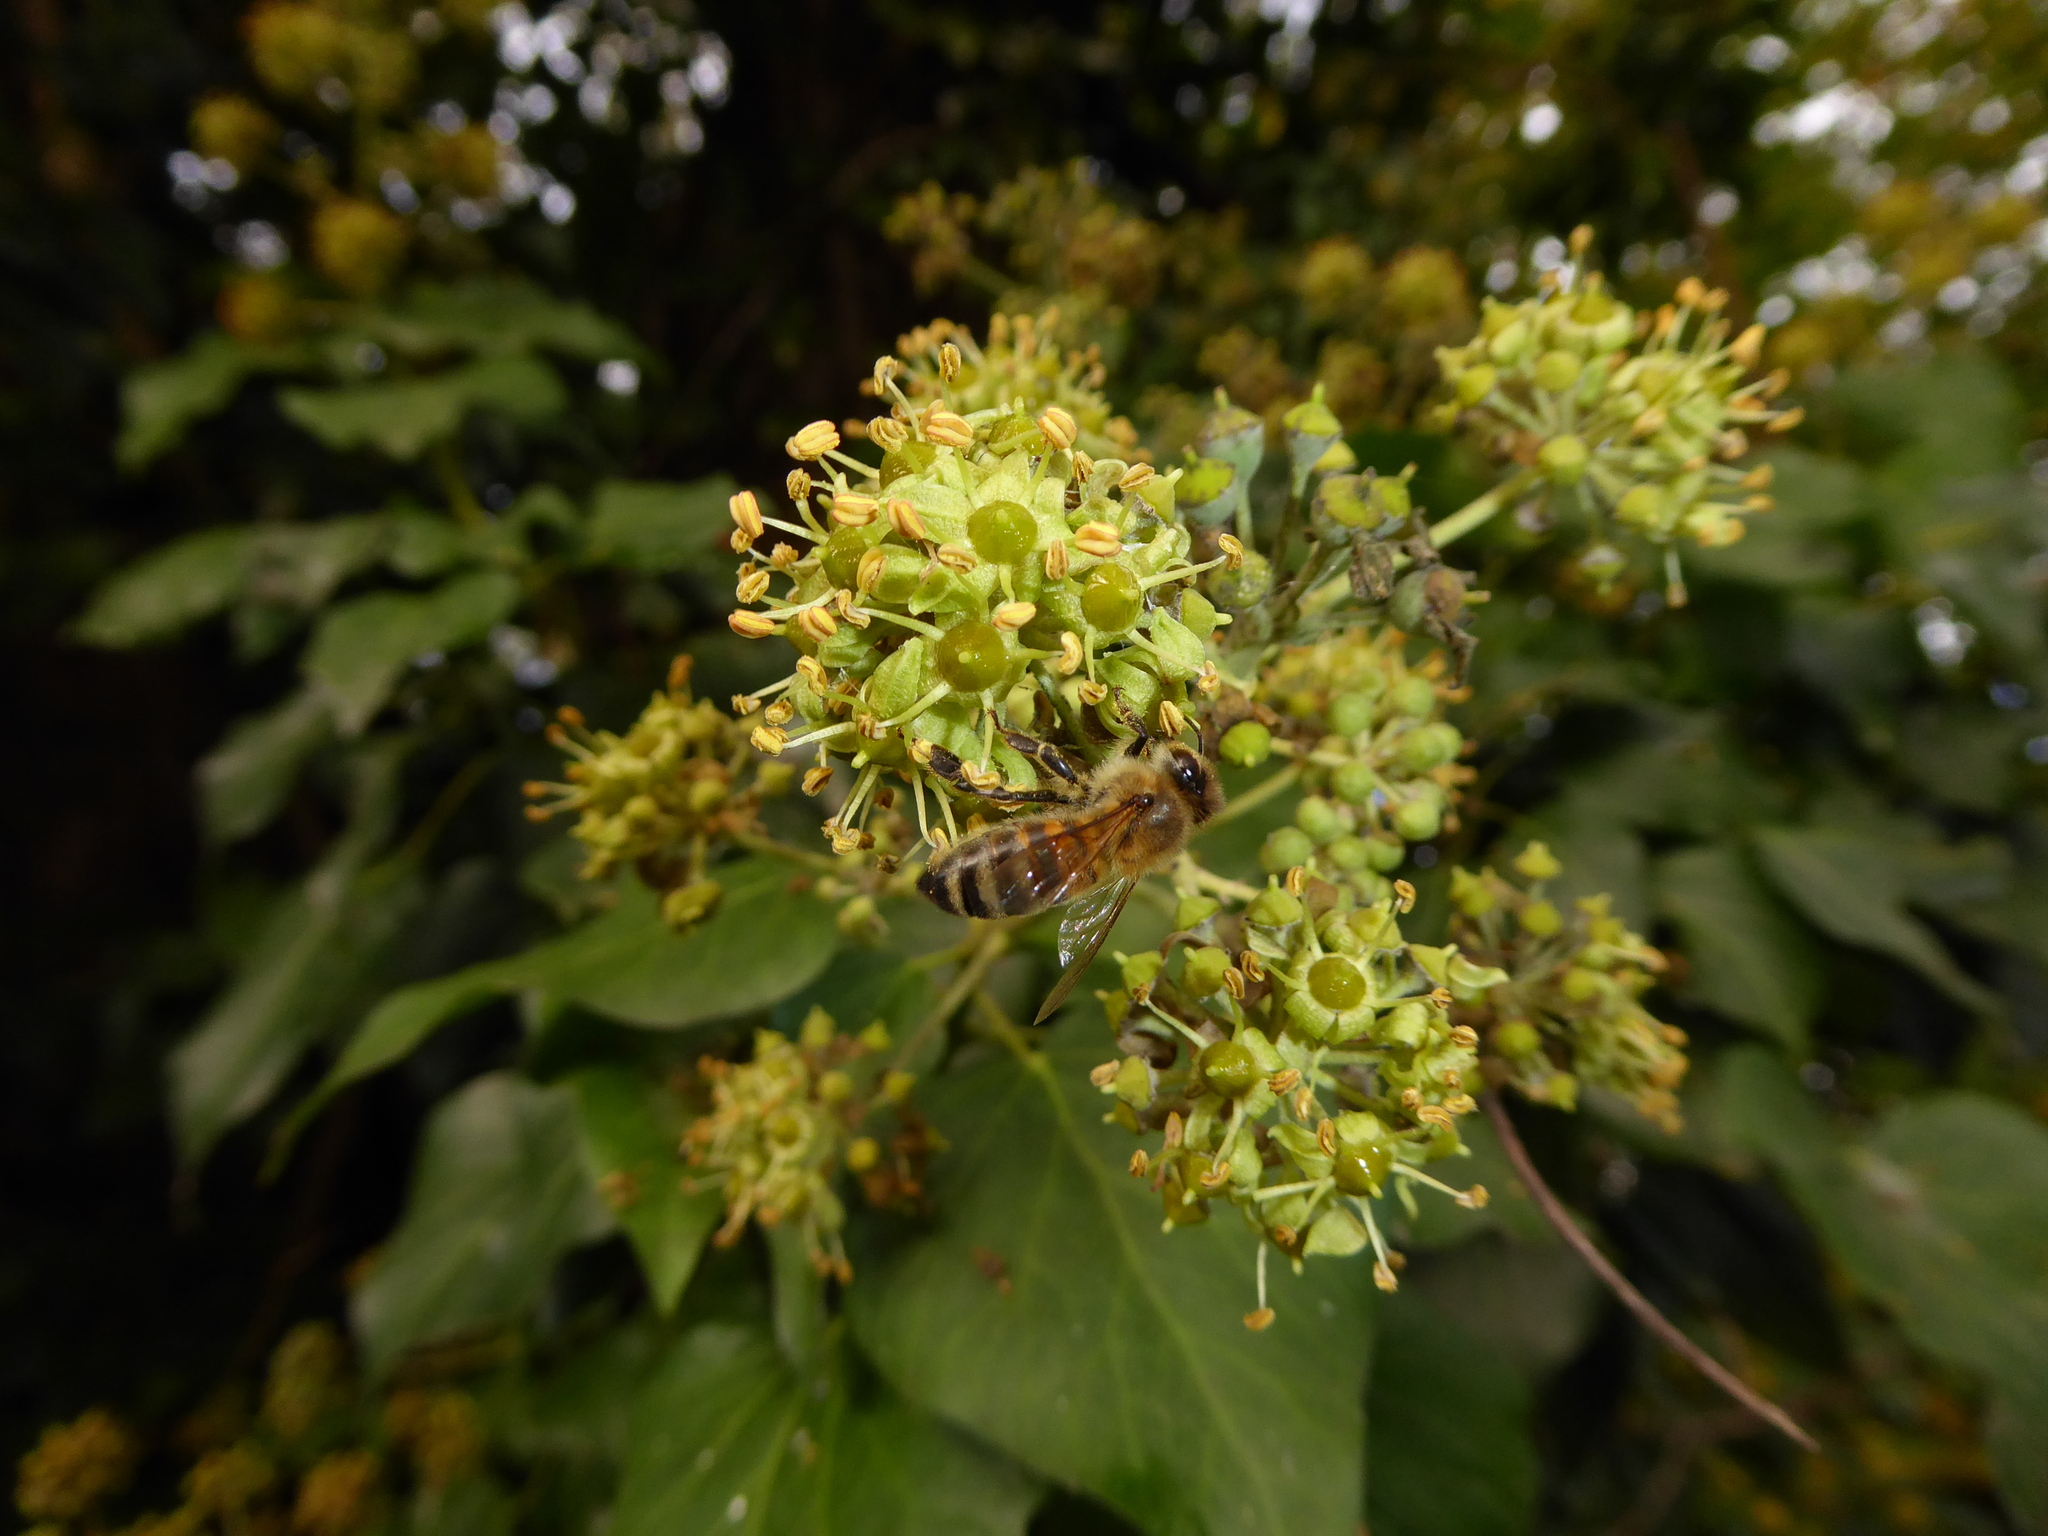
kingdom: Animalia
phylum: Arthropoda
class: Insecta
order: Hymenoptera
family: Apidae
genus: Apis
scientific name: Apis mellifera
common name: Honey bee
